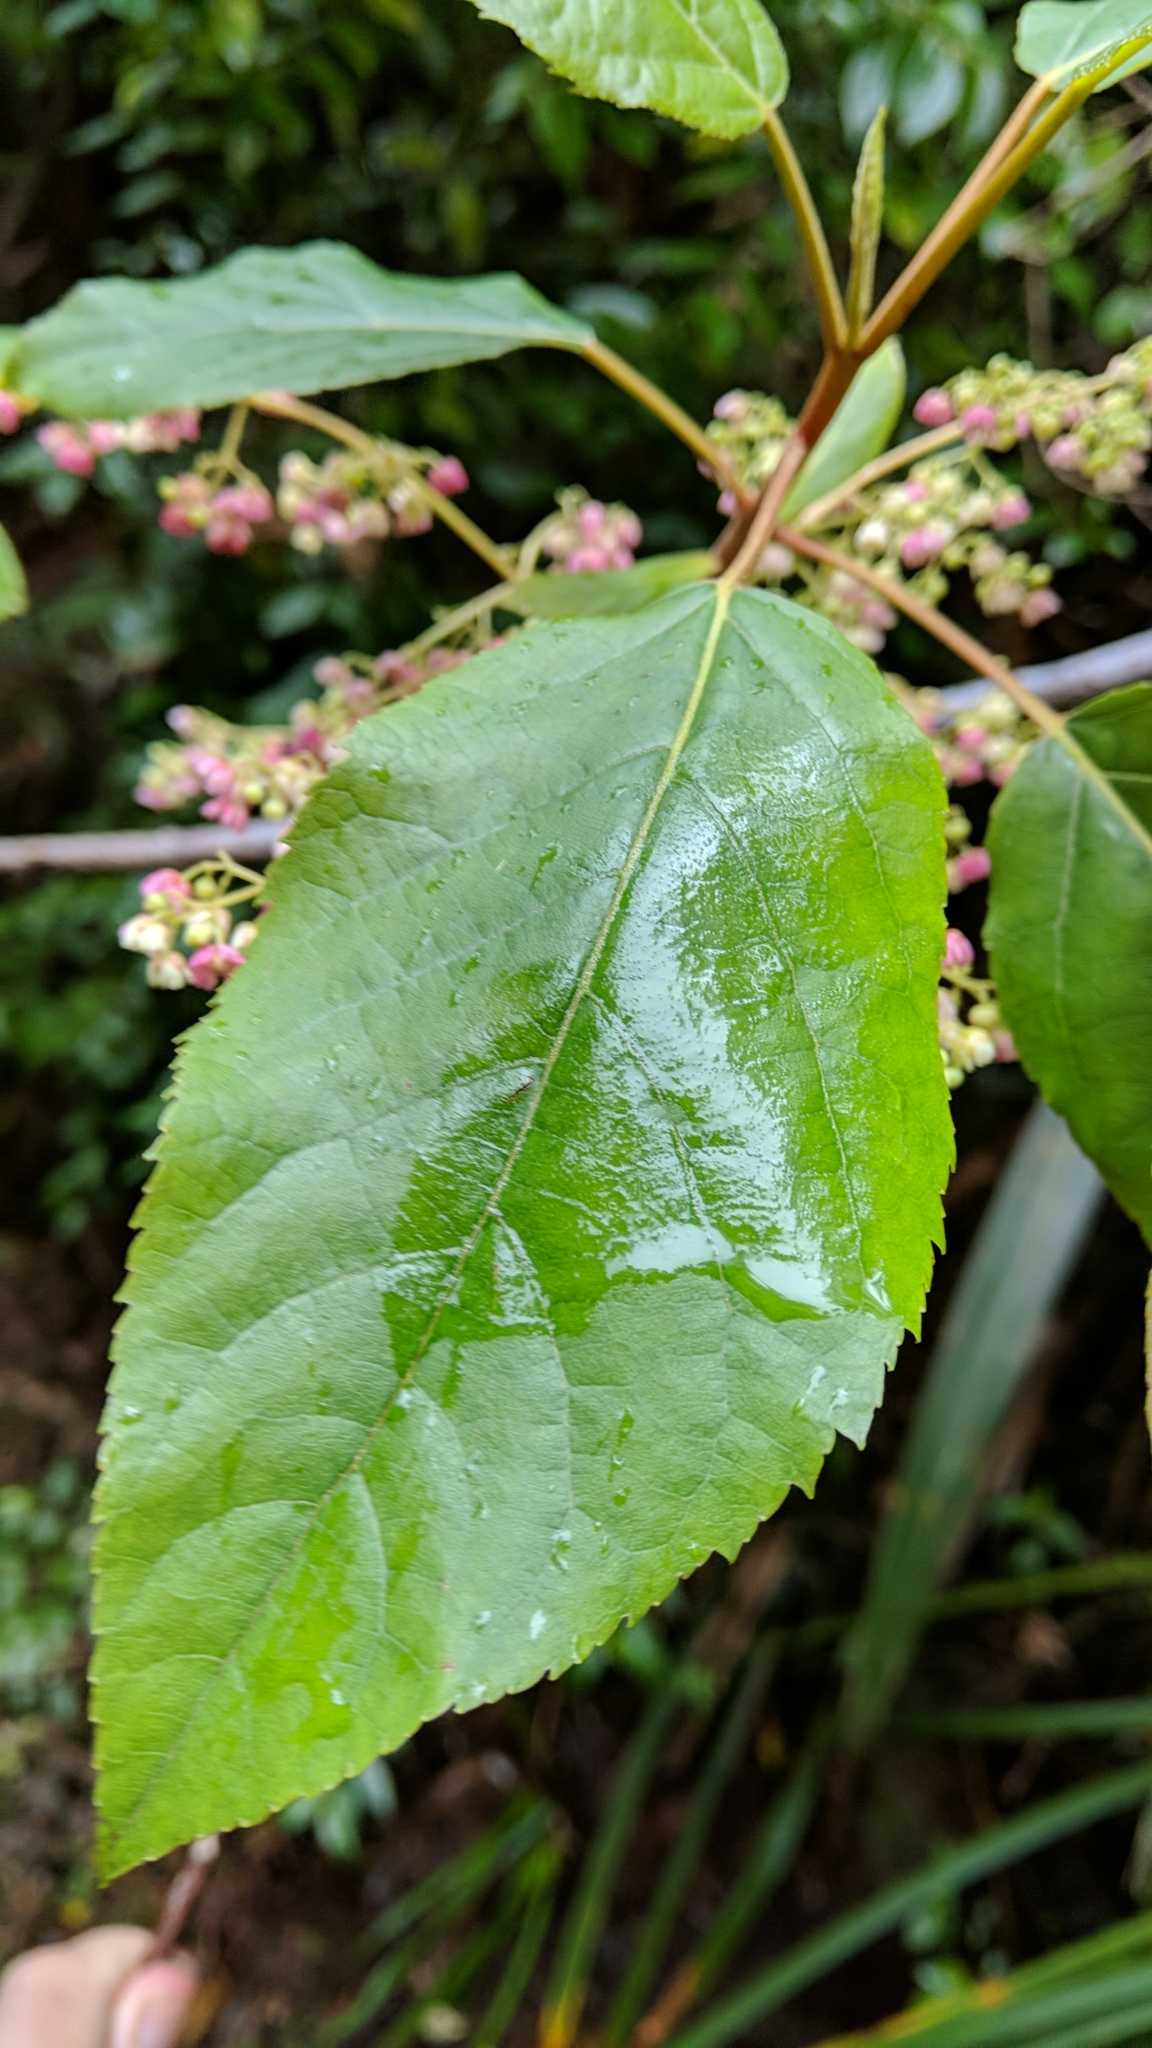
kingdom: Plantae
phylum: Tracheophyta
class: Magnoliopsida
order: Oxalidales
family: Elaeocarpaceae
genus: Aristotelia
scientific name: Aristotelia serrata
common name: New zealand wineberry
